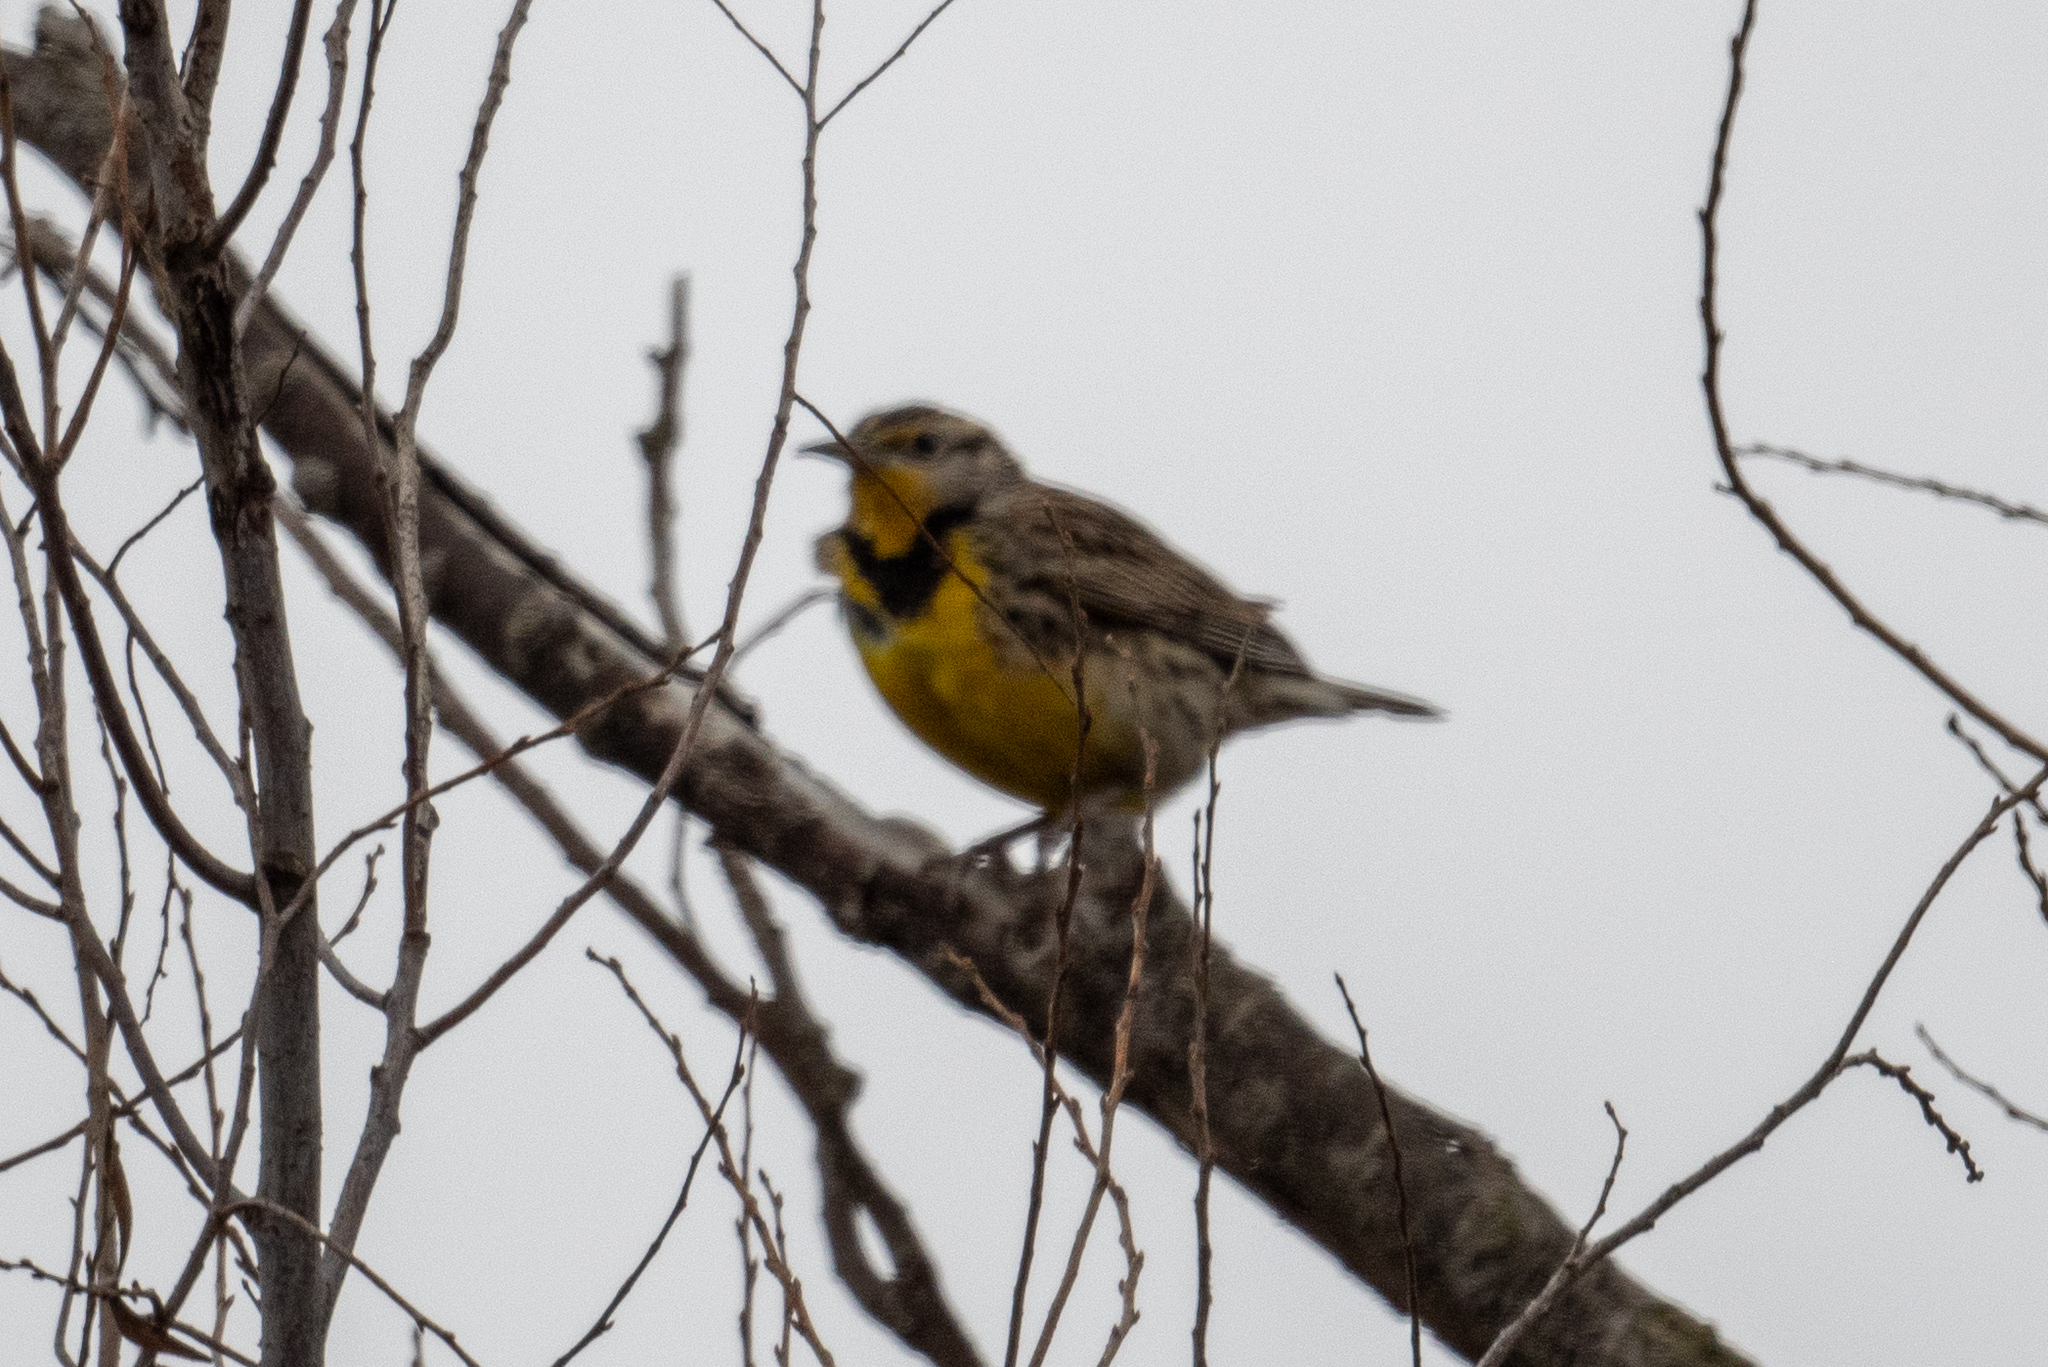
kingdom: Animalia
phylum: Chordata
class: Aves
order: Passeriformes
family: Icteridae
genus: Sturnella
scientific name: Sturnella neglecta
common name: Western meadowlark
